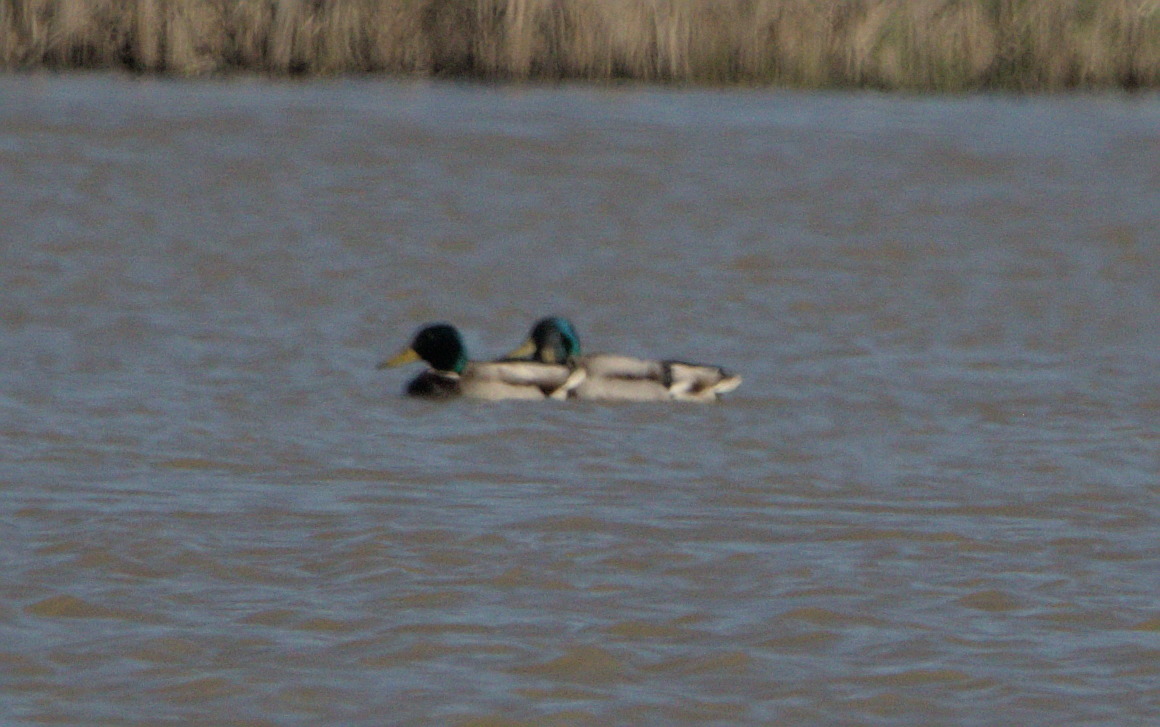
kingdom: Animalia
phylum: Chordata
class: Aves
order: Anseriformes
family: Anatidae
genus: Anas
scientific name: Anas platyrhynchos
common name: Mallard
